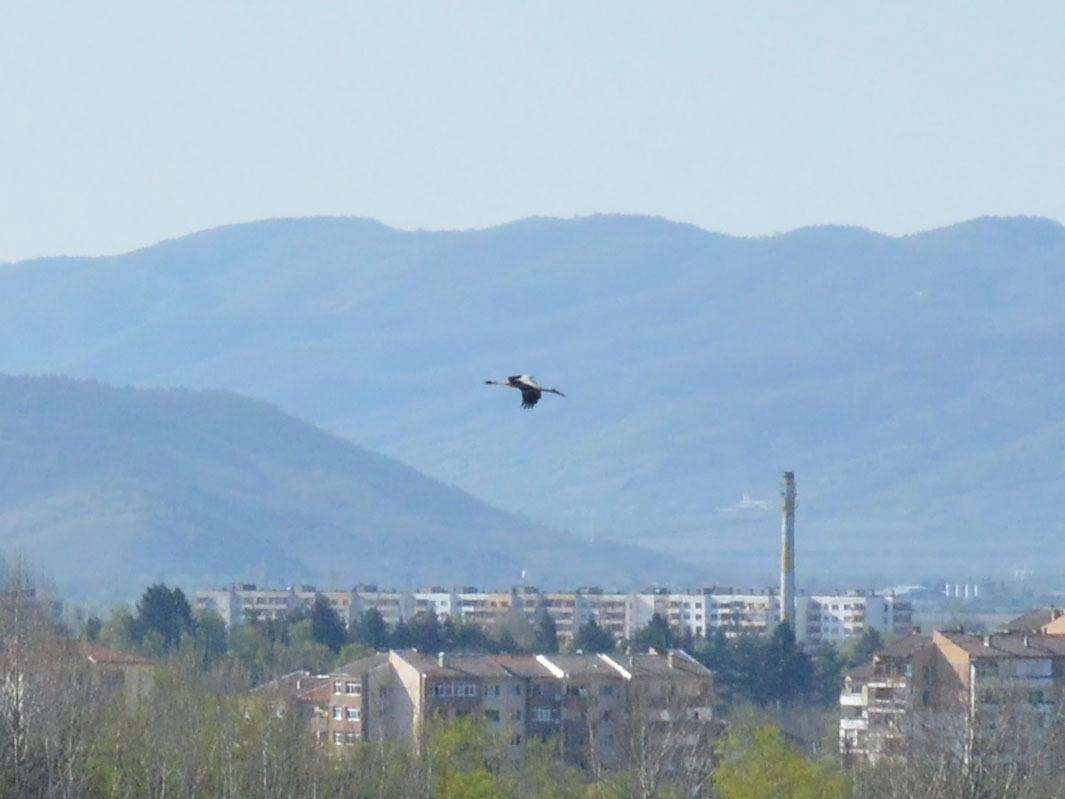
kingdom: Animalia
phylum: Chordata
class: Aves
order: Ciconiiformes
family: Ciconiidae
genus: Ciconia
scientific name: Ciconia ciconia
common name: White stork
